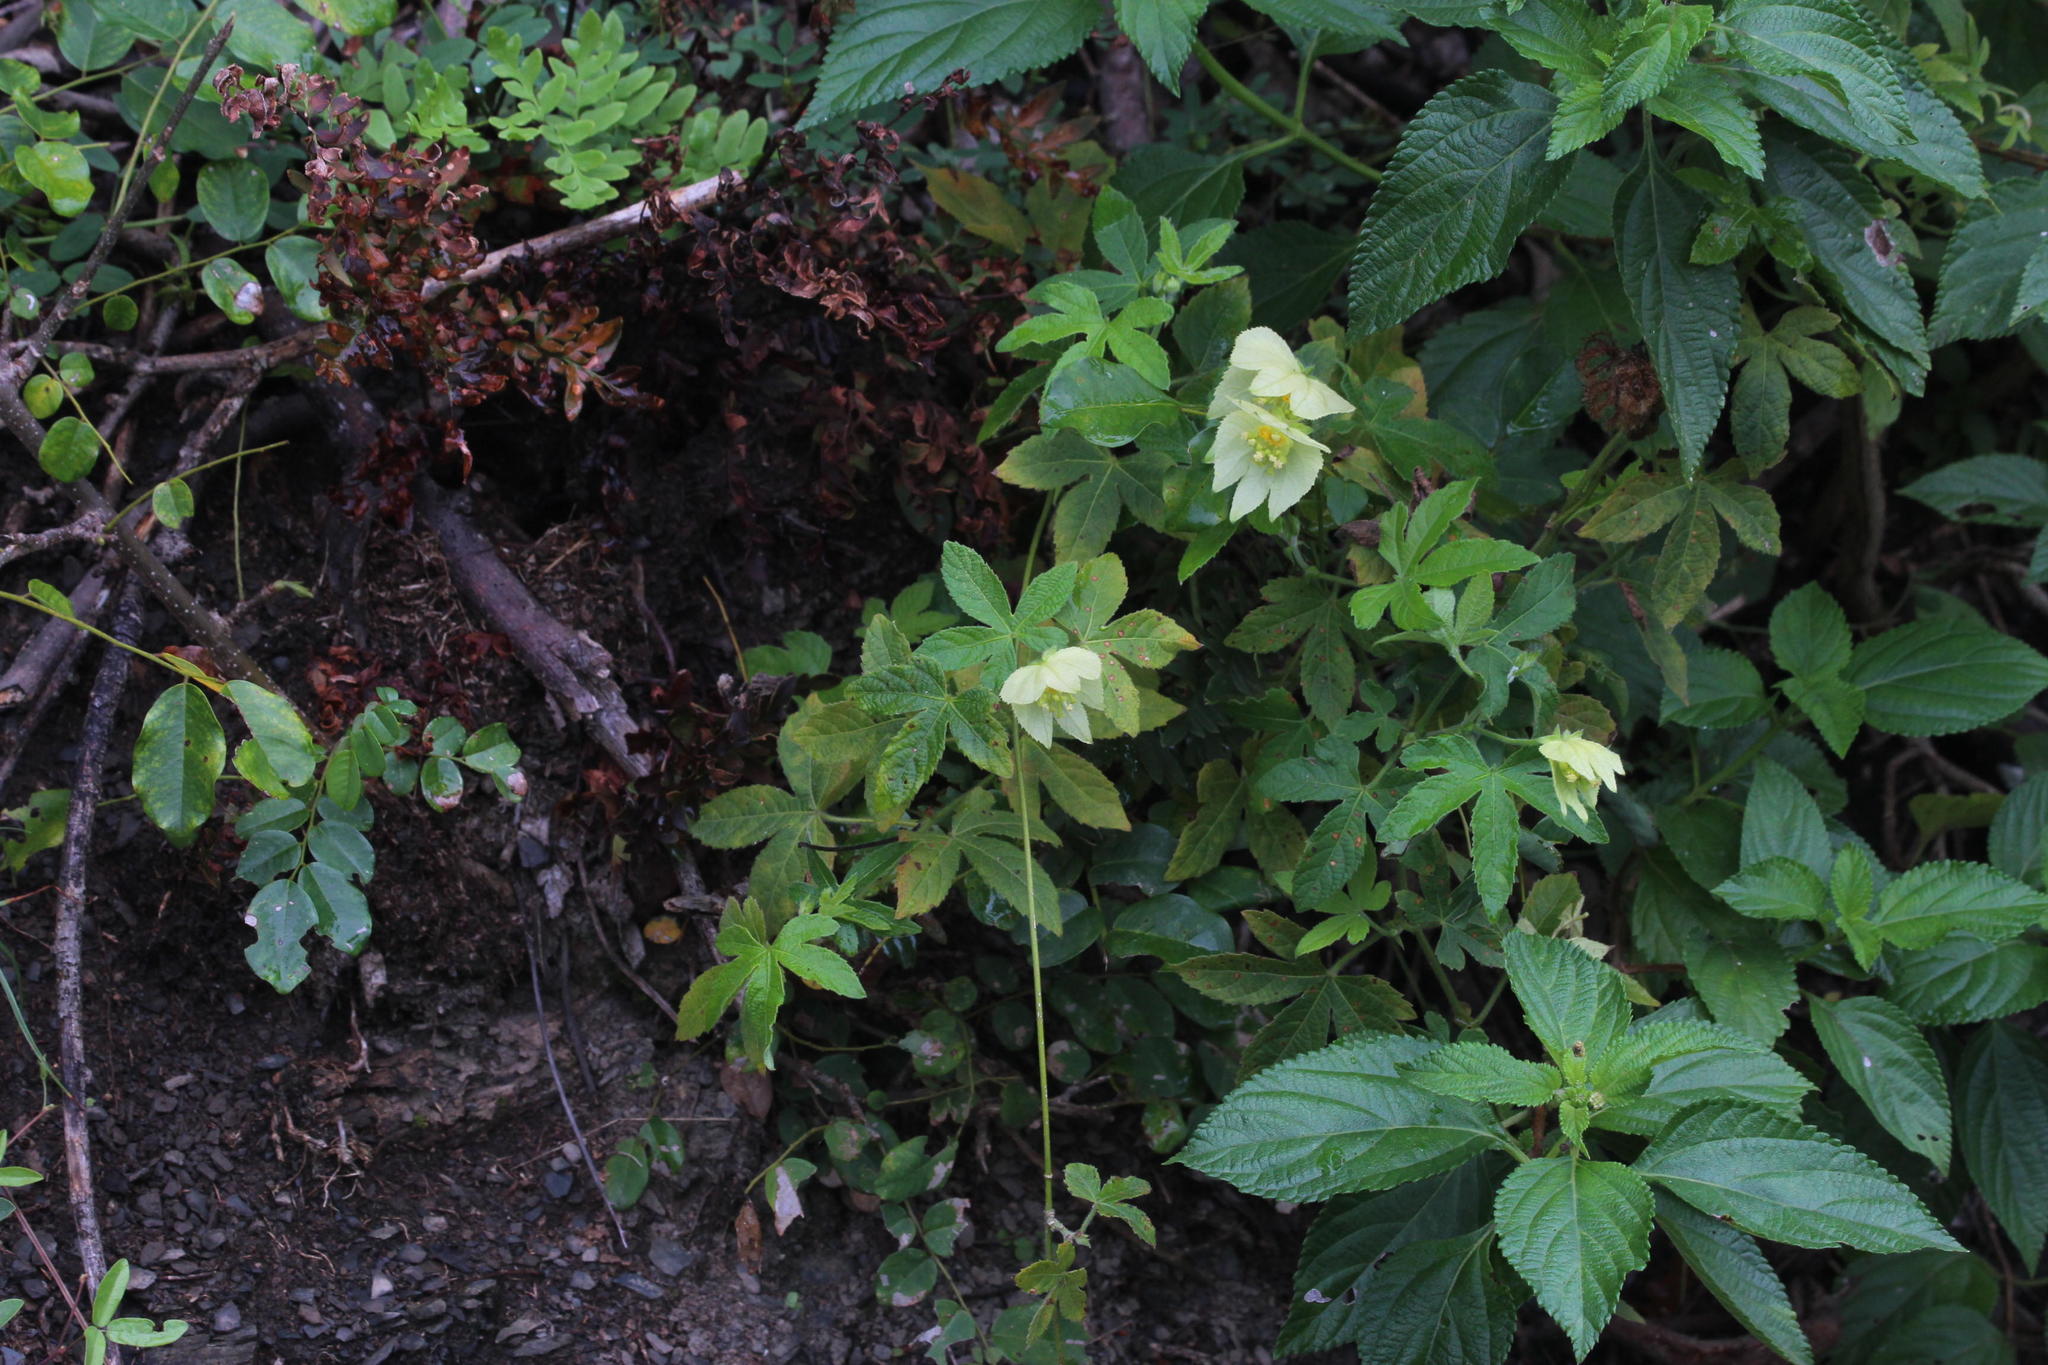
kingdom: Plantae
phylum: Tracheophyta
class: Magnoliopsida
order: Malpighiales
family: Euphorbiaceae
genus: Dalechampia
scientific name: Dalechampia capensis
